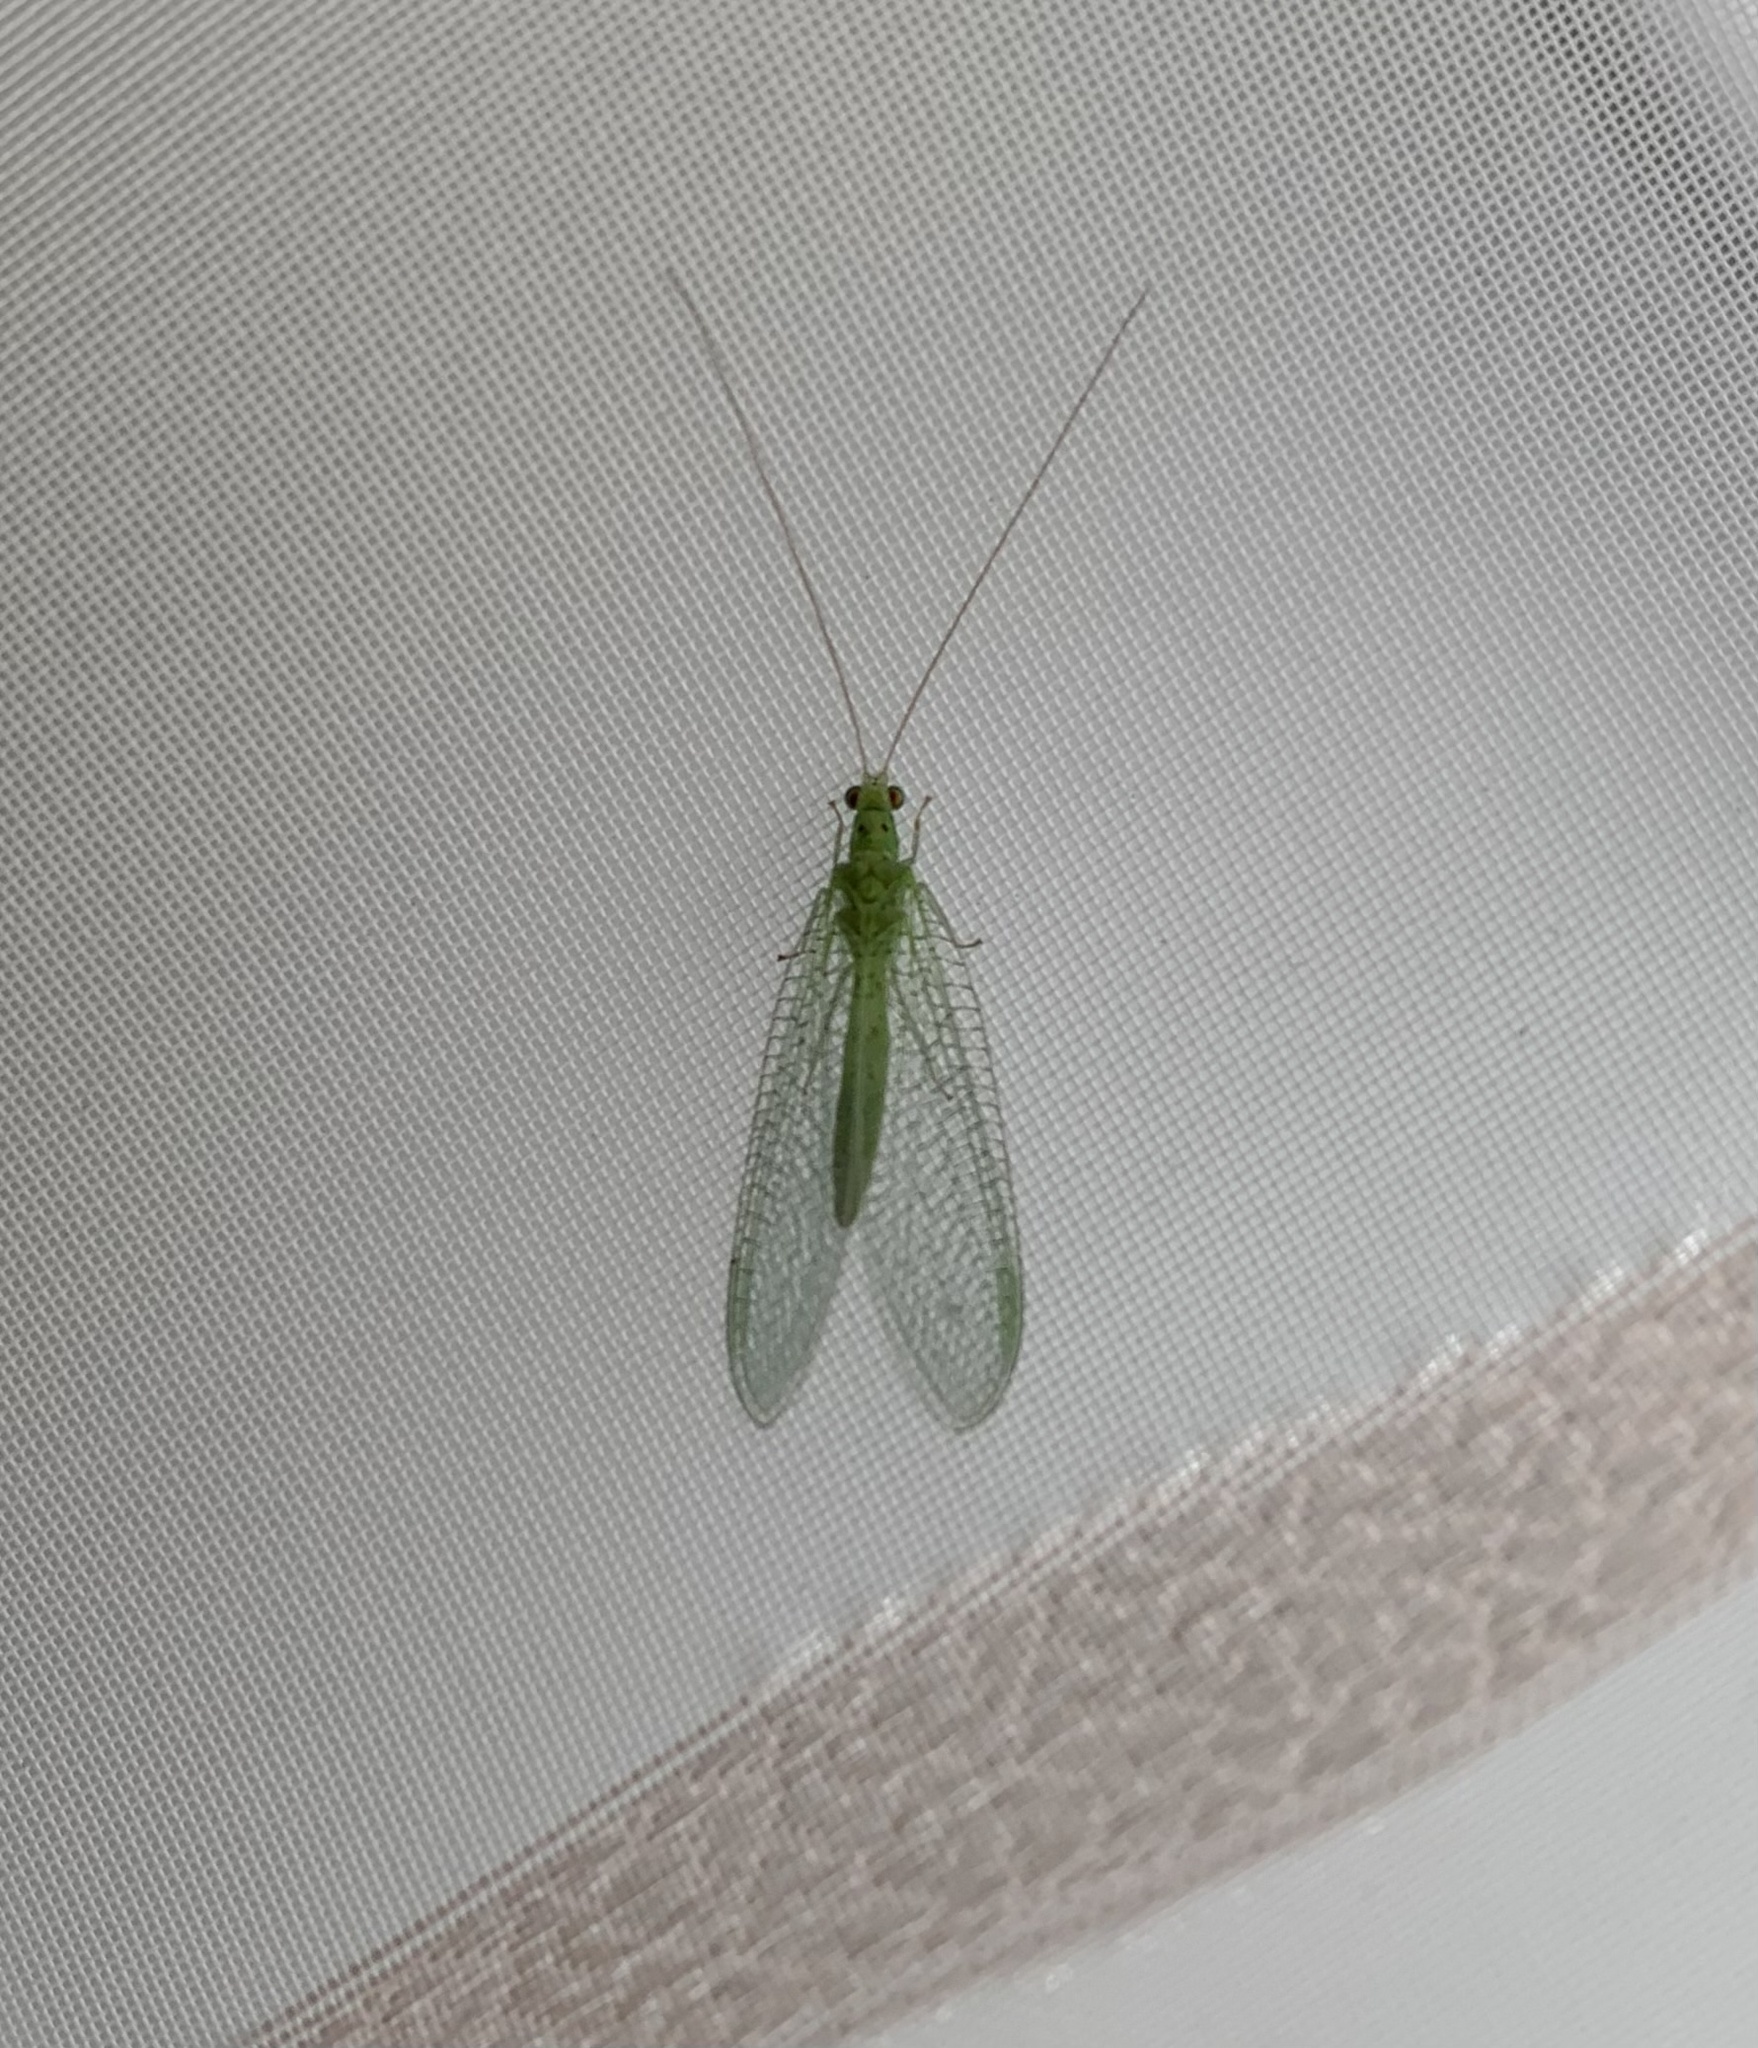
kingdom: Animalia
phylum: Arthropoda
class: Insecta
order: Neuroptera
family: Chrysopidae
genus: Pseudomallada
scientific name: Pseudomallada
